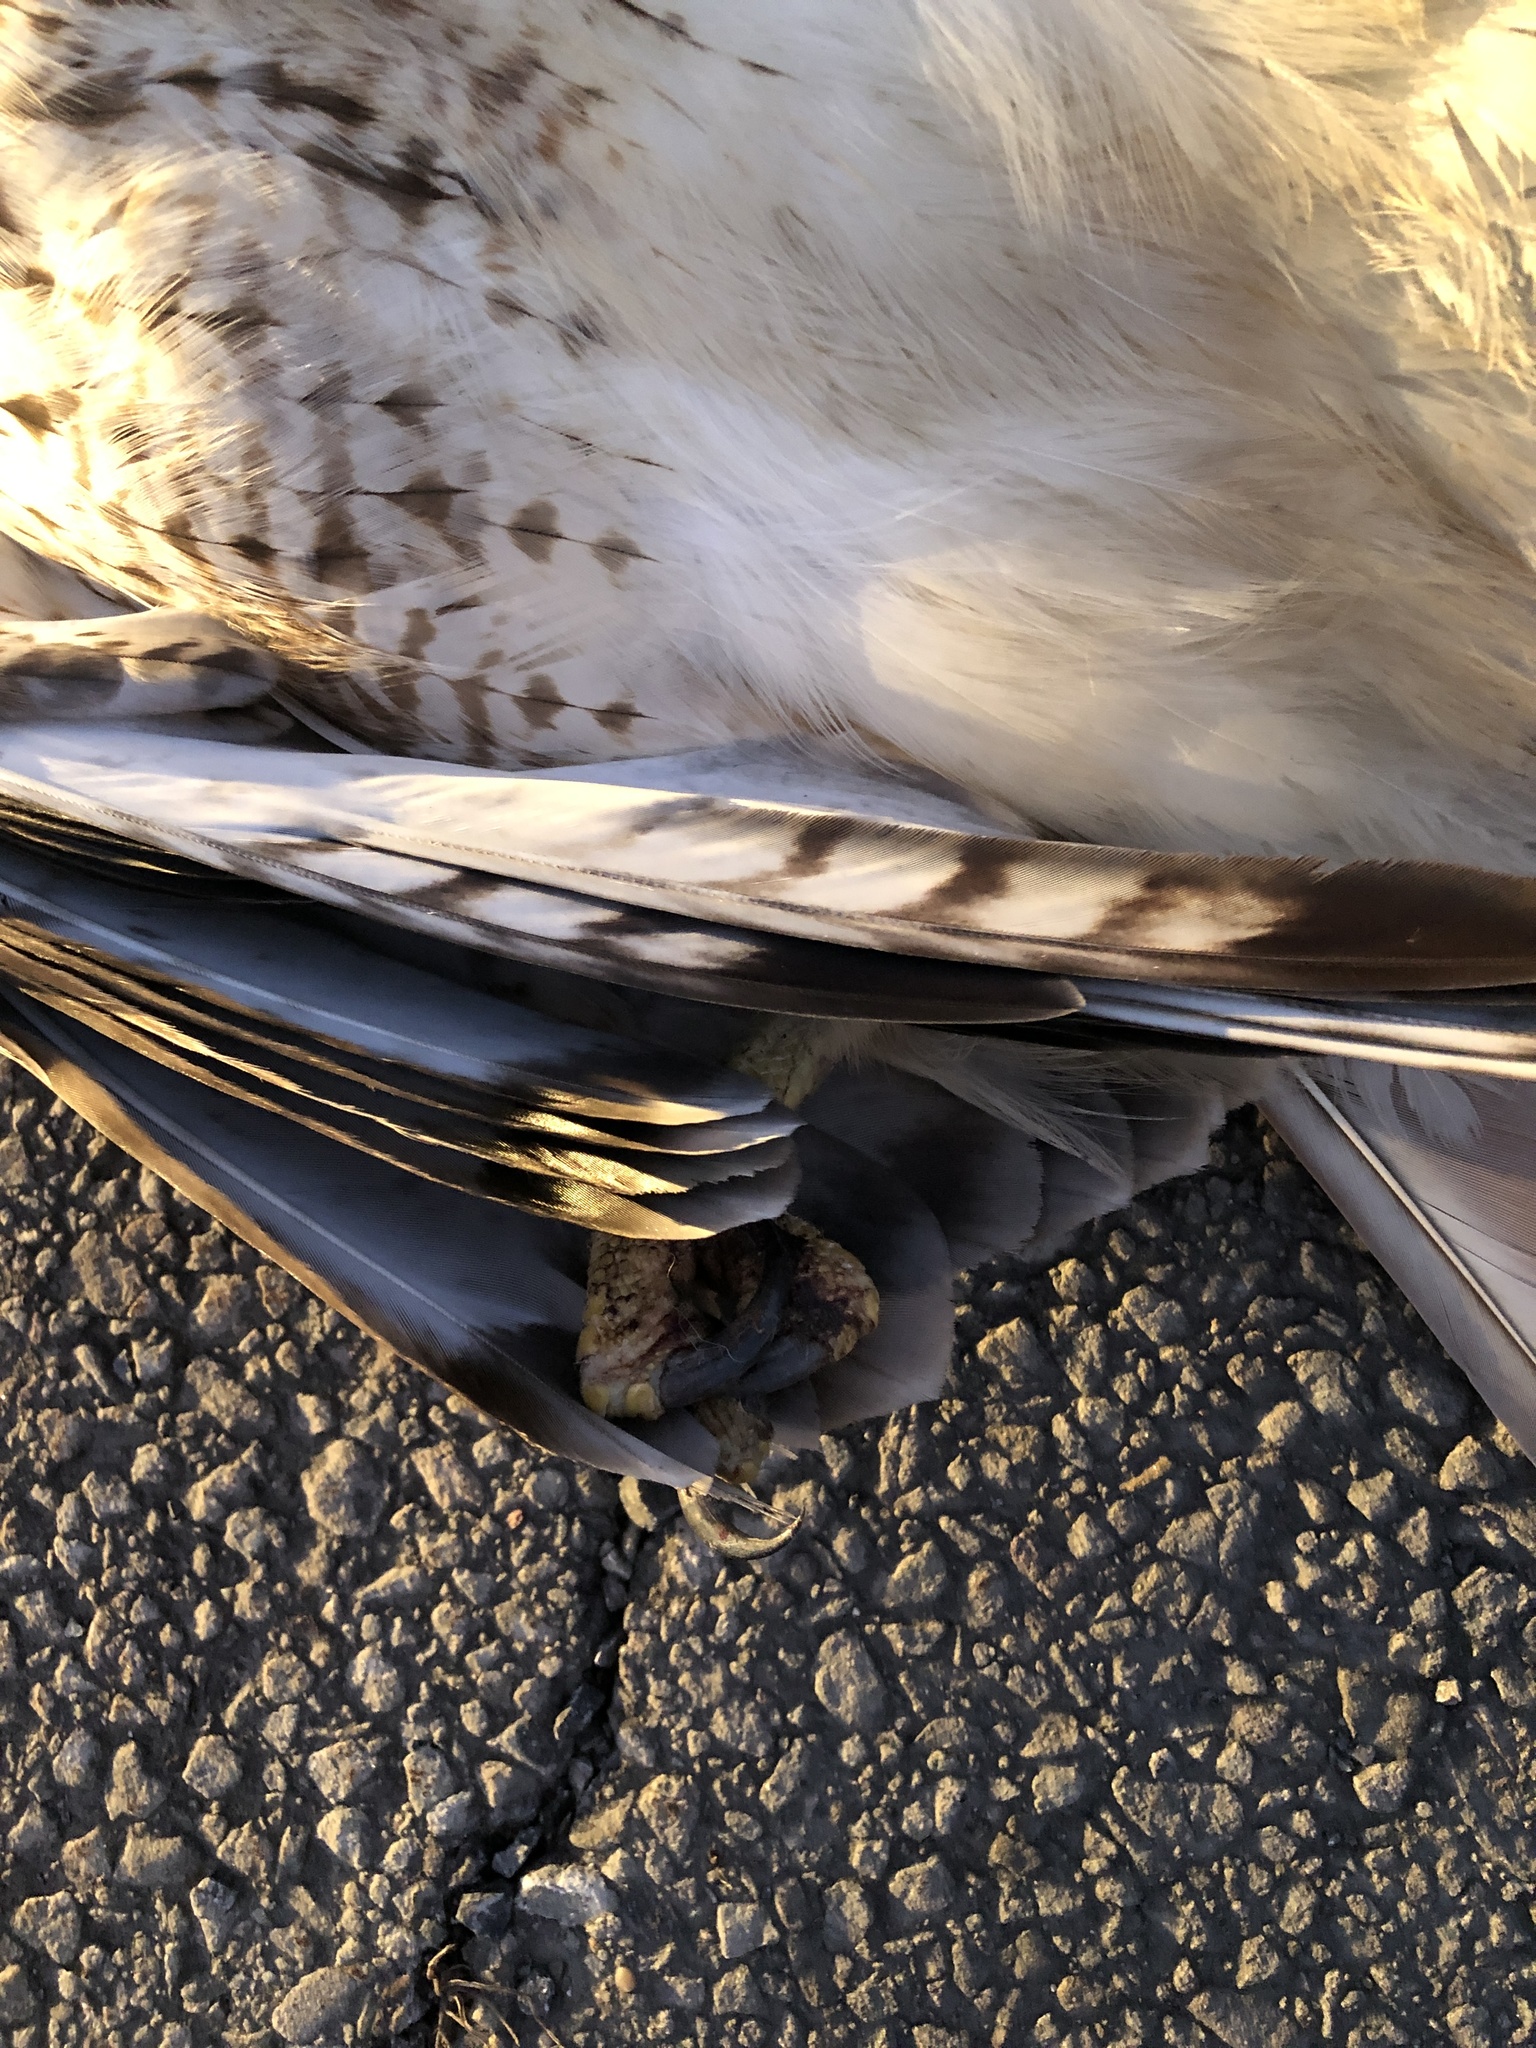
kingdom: Animalia
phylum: Chordata
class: Aves
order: Accipitriformes
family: Accipitridae
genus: Buteo
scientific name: Buteo jamaicensis
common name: Red-tailed hawk
